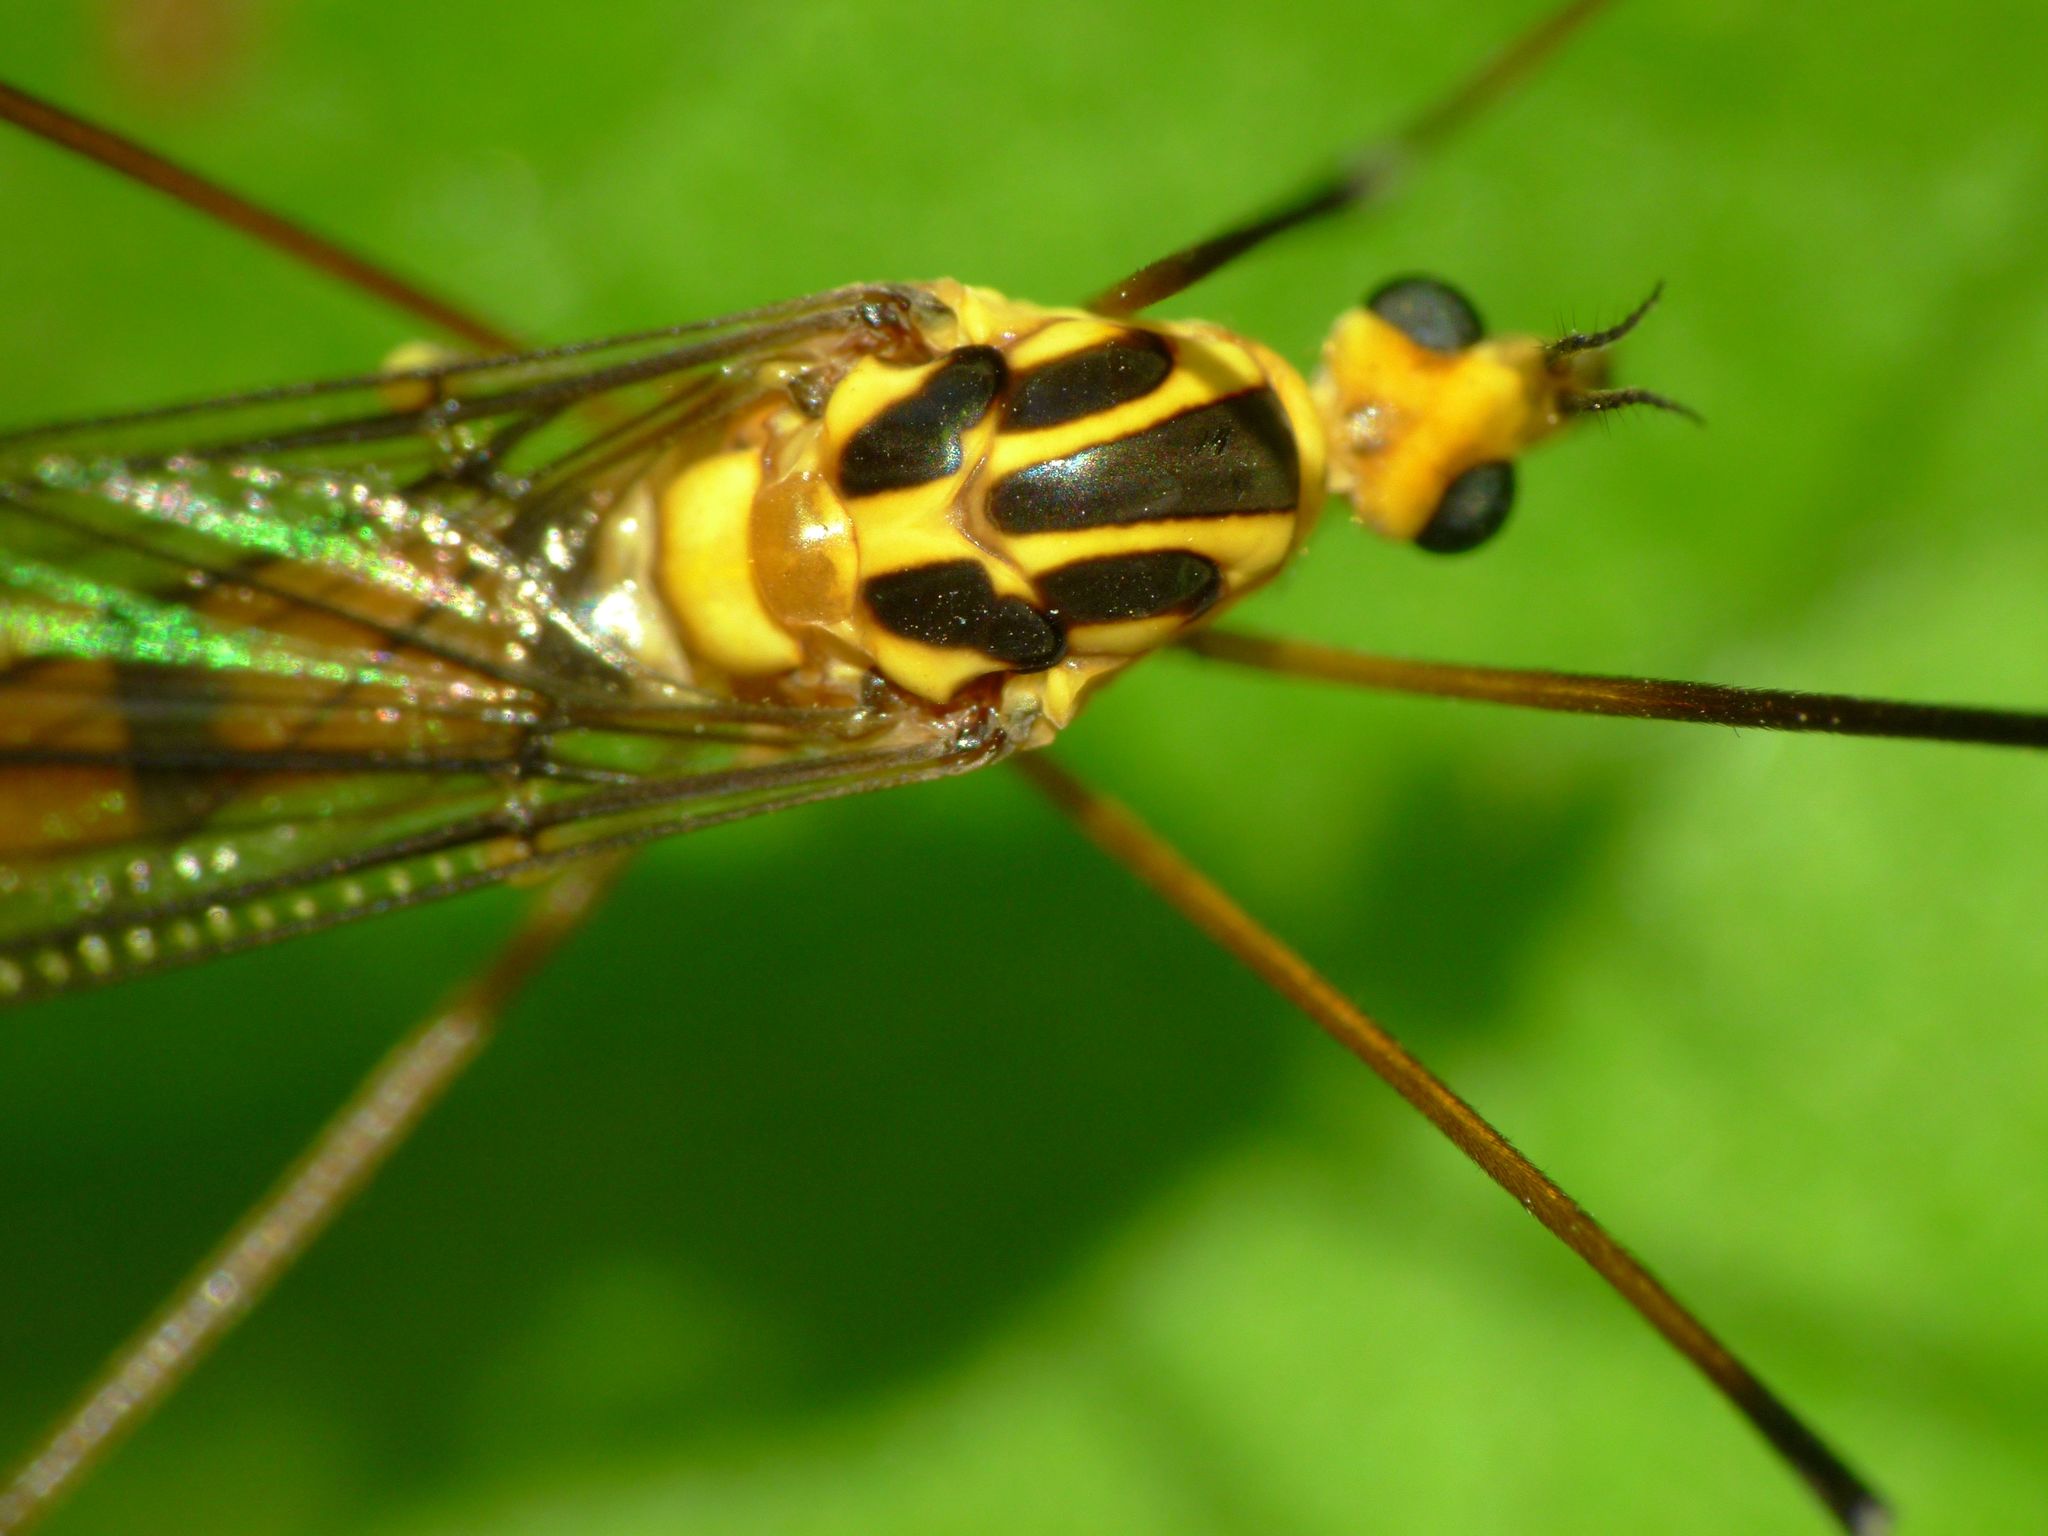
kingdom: Animalia
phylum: Arthropoda
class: Insecta
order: Diptera
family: Tipulidae
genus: Nephrotoma
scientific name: Nephrotoma australasiae
